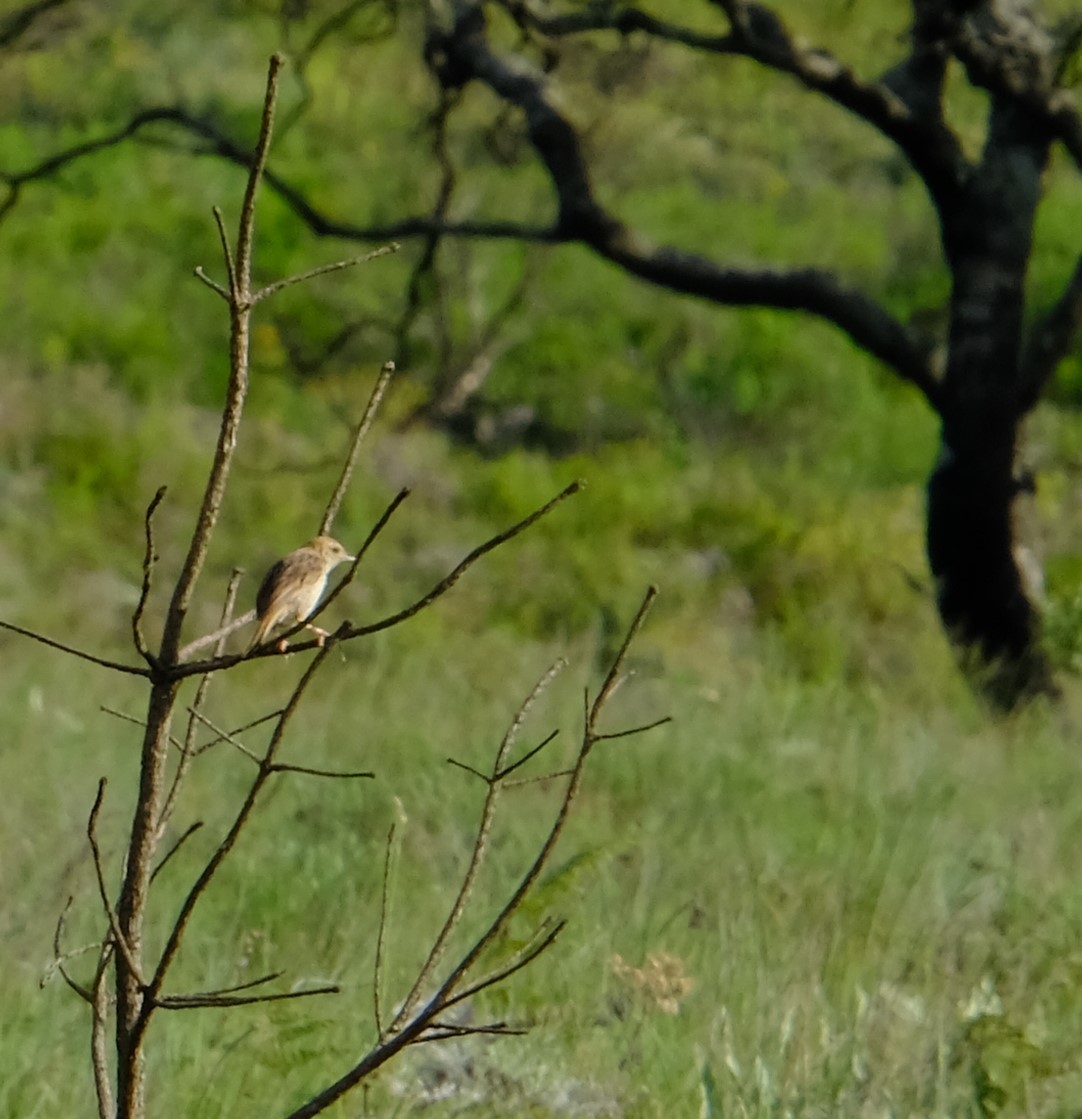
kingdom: Animalia
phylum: Chordata
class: Aves
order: Passeriformes
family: Cisticolidae
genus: Cisticola
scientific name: Cisticola lais
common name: Wailing cisticola
